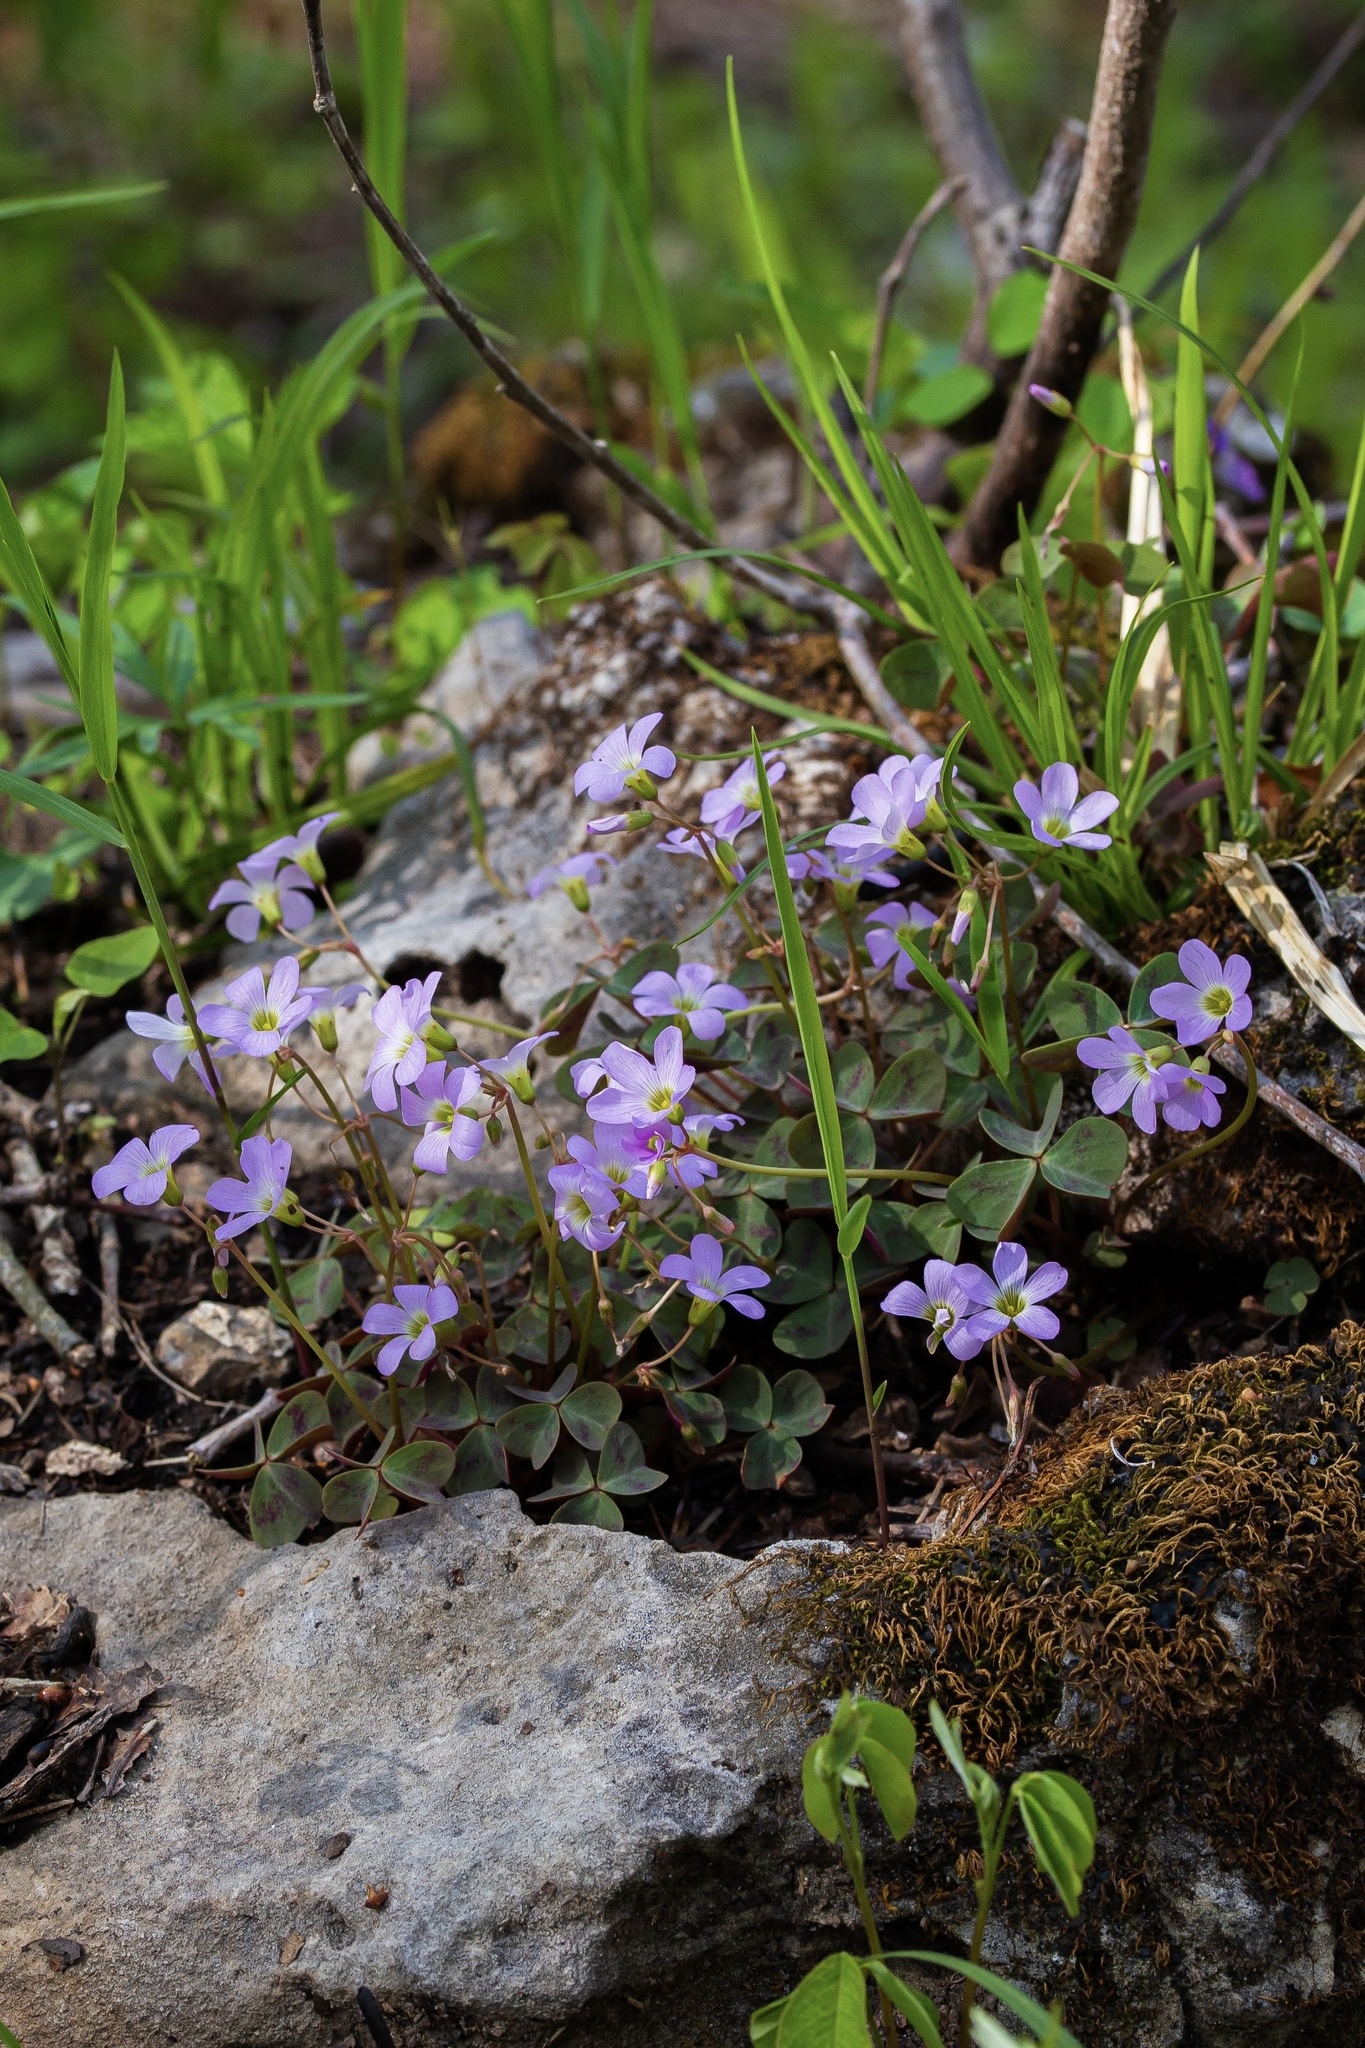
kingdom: Plantae
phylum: Tracheophyta
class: Magnoliopsida
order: Oxalidales
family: Oxalidaceae
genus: Oxalis
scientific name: Oxalis violacea
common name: Violet wood-sorrel
